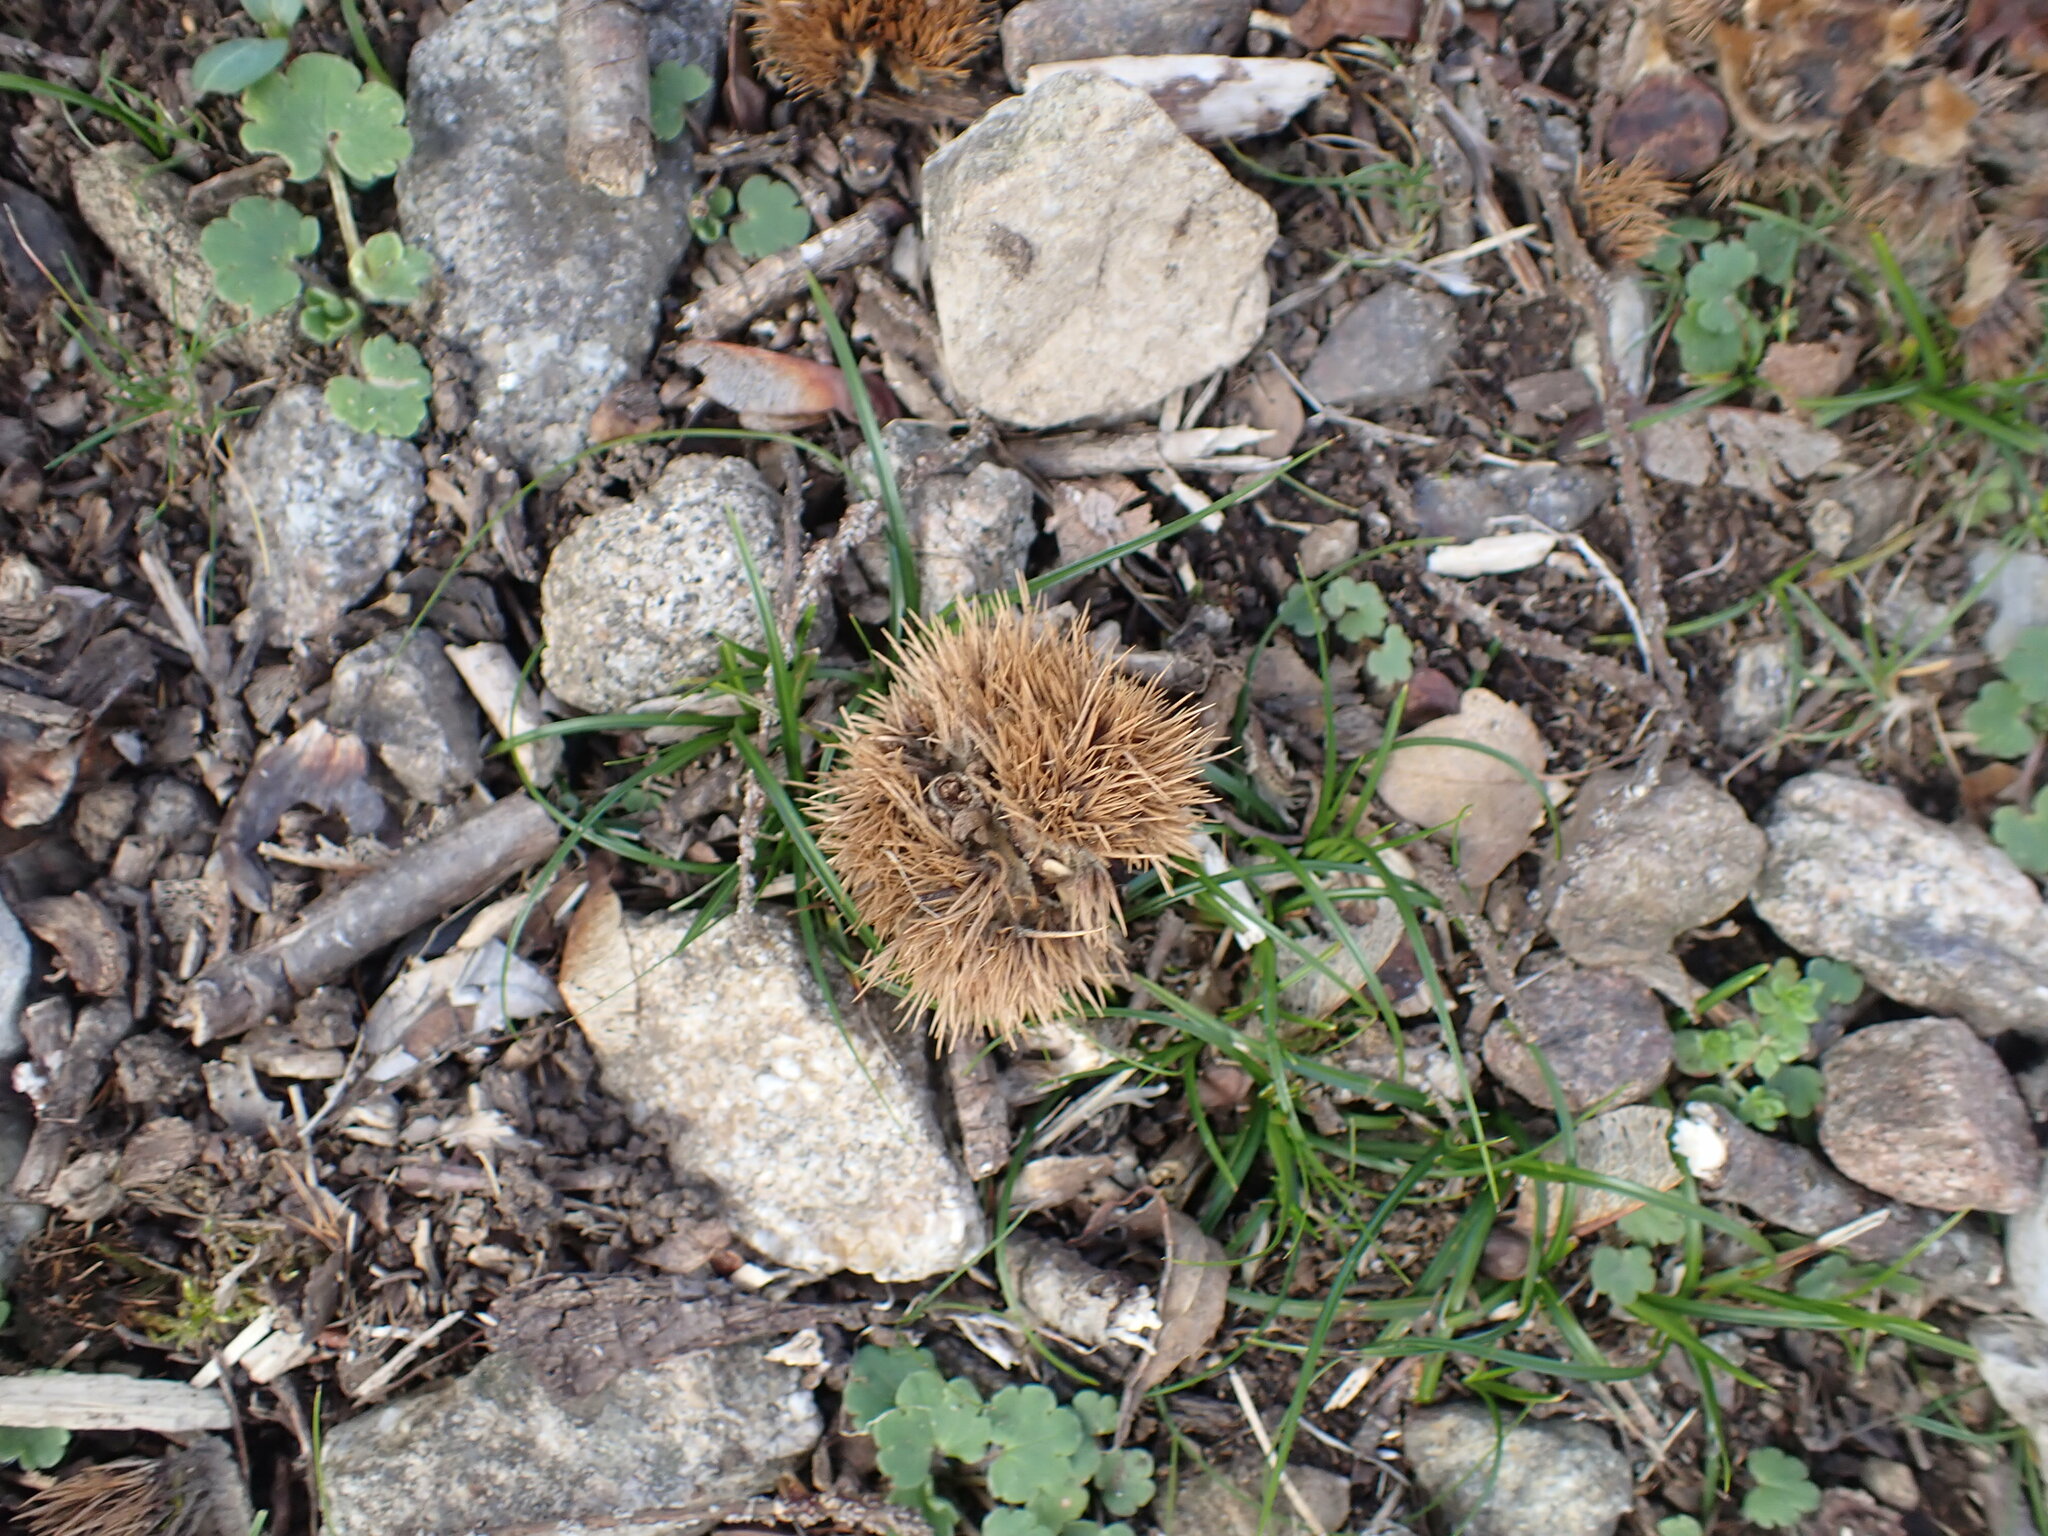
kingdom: Plantae
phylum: Tracheophyta
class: Magnoliopsida
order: Fagales
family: Fagaceae
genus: Castanea
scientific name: Castanea sativa
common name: Sweet chestnut
